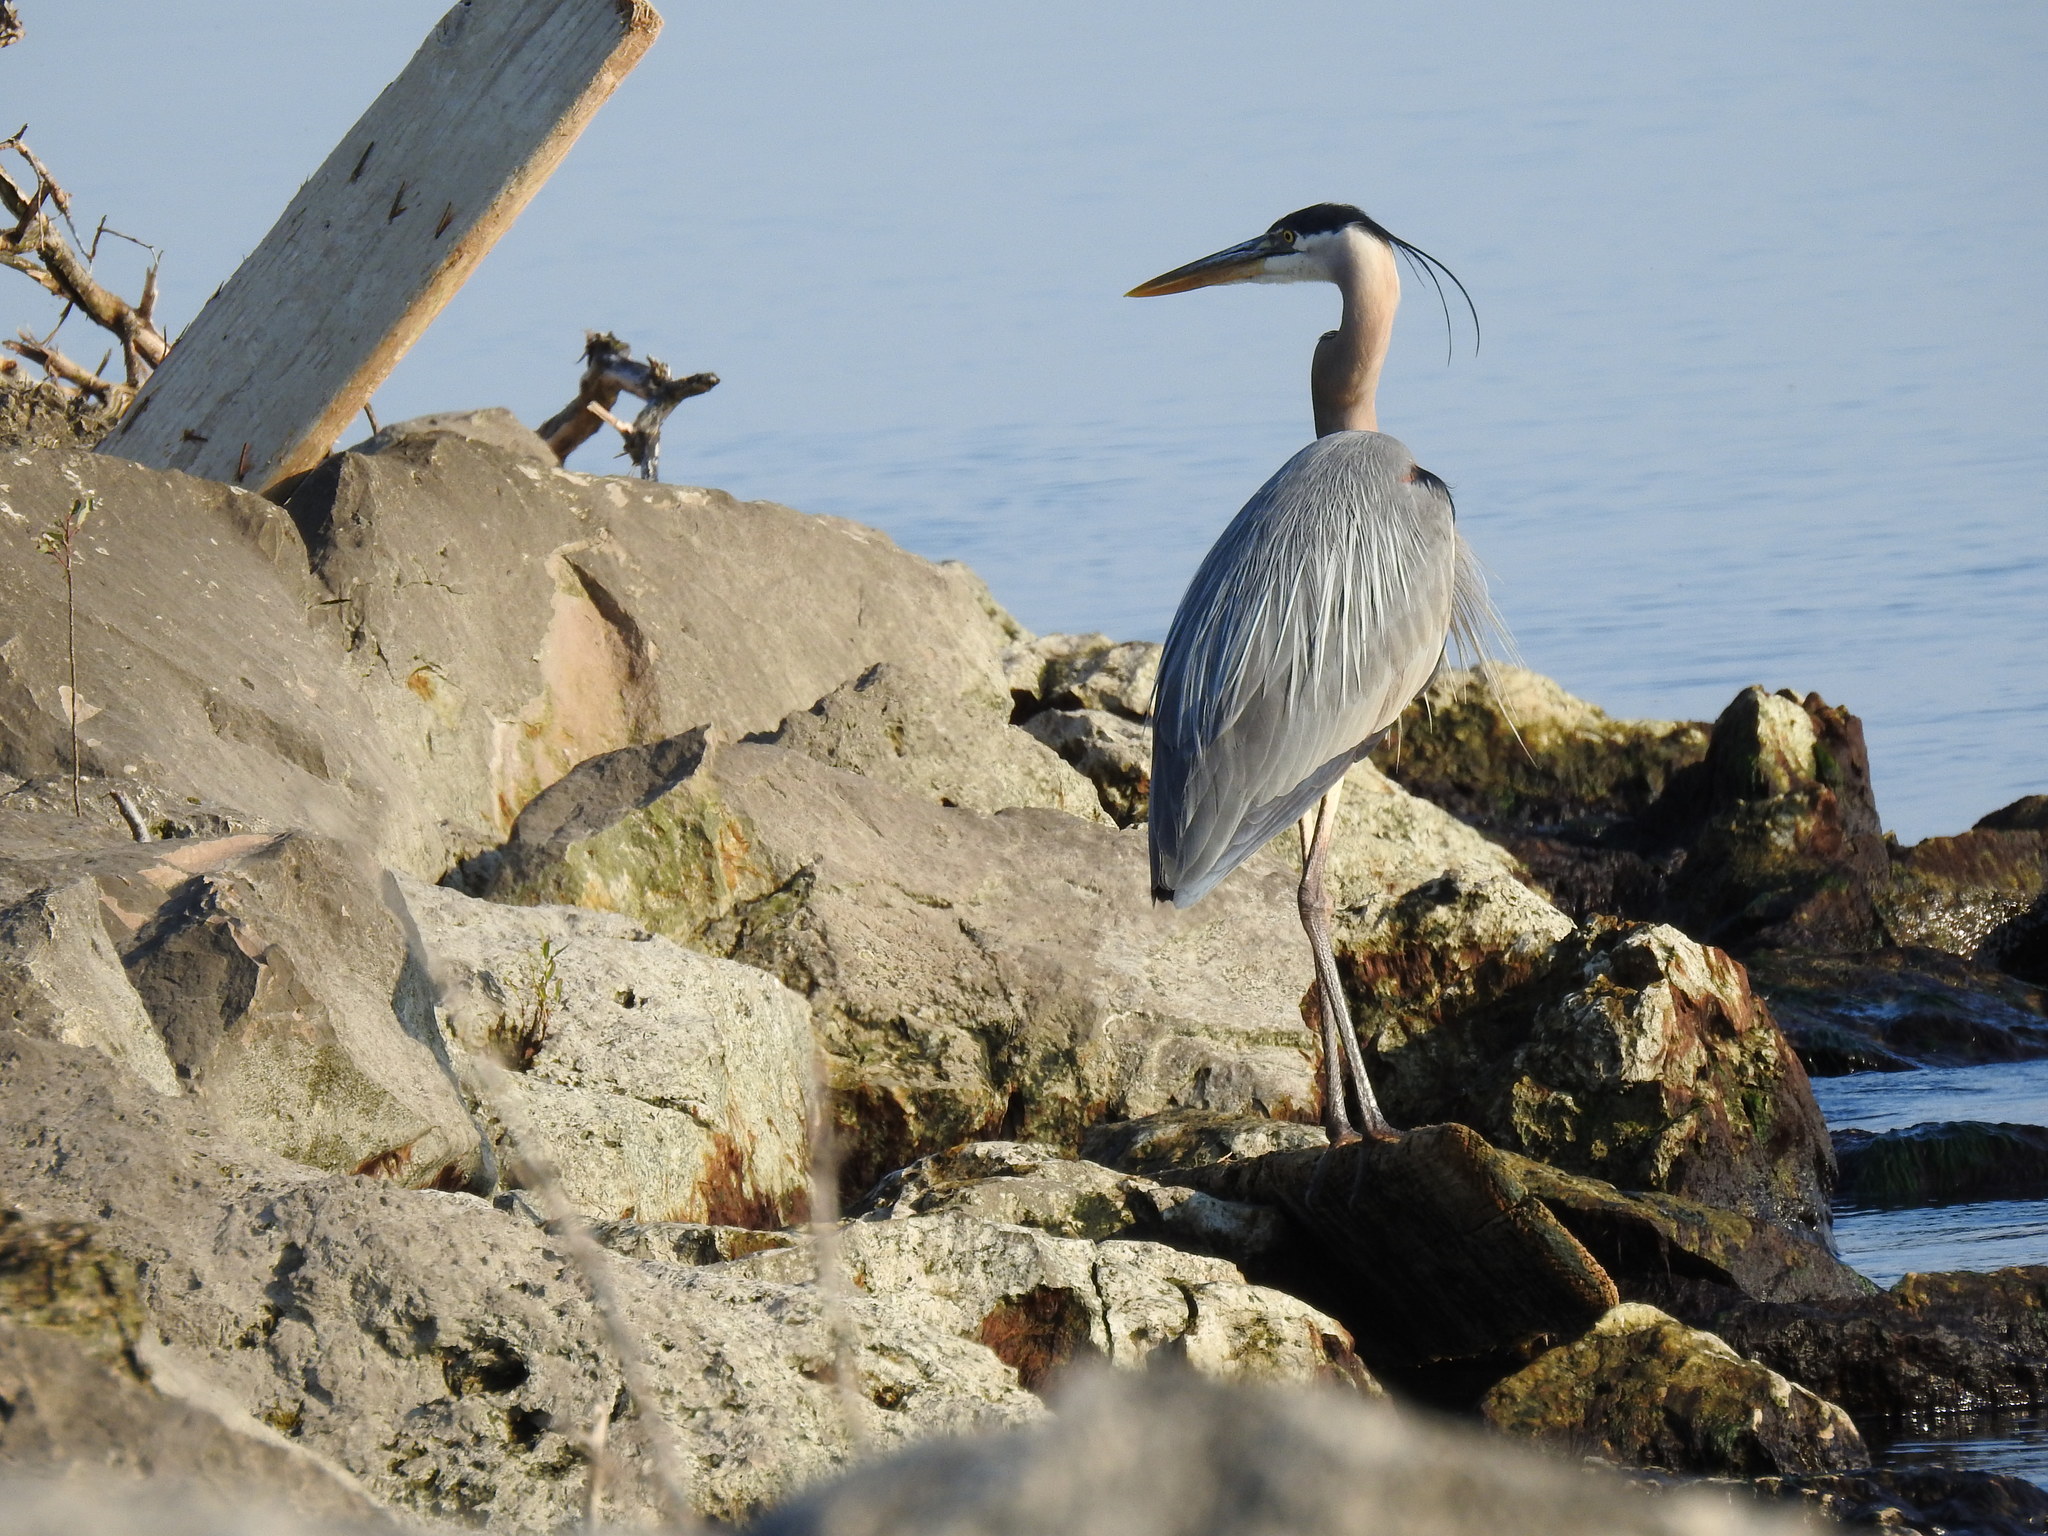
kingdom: Animalia
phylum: Chordata
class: Aves
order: Pelecaniformes
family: Ardeidae
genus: Ardea
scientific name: Ardea herodias
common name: Great blue heron
